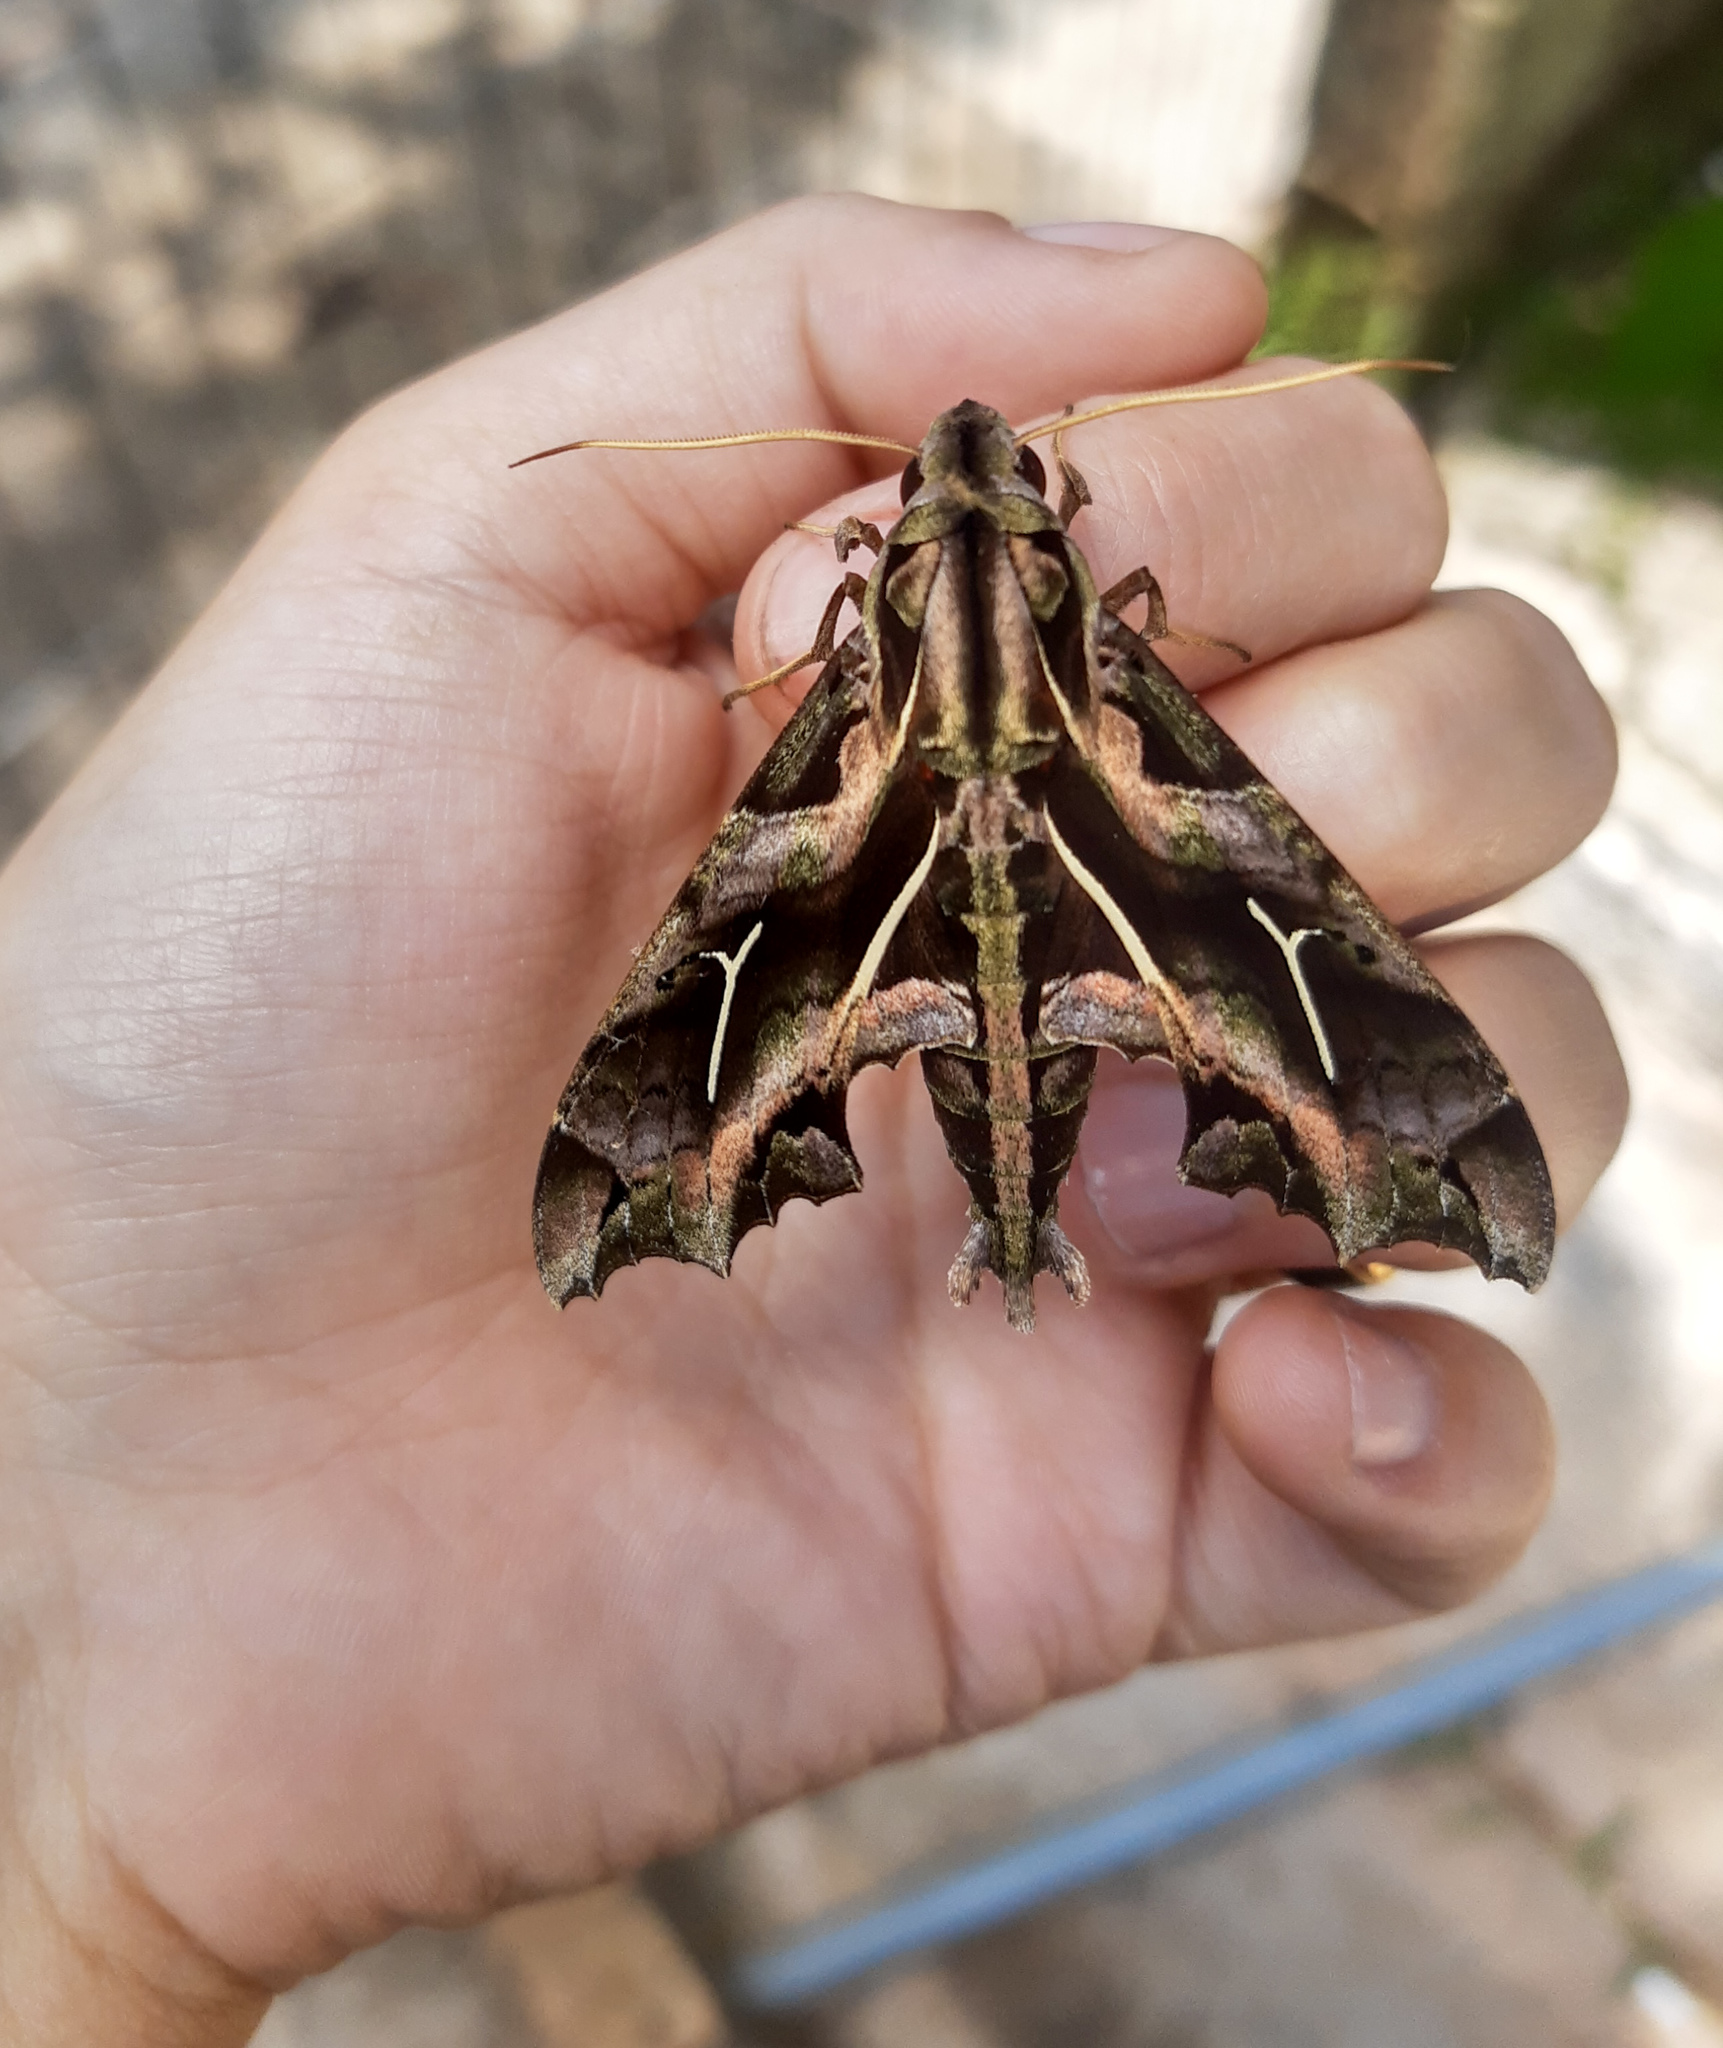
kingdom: Animalia
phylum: Arthropoda
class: Insecta
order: Lepidoptera
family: Sphingidae
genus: Hemeroplanes
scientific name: Hemeroplanes longistriga
